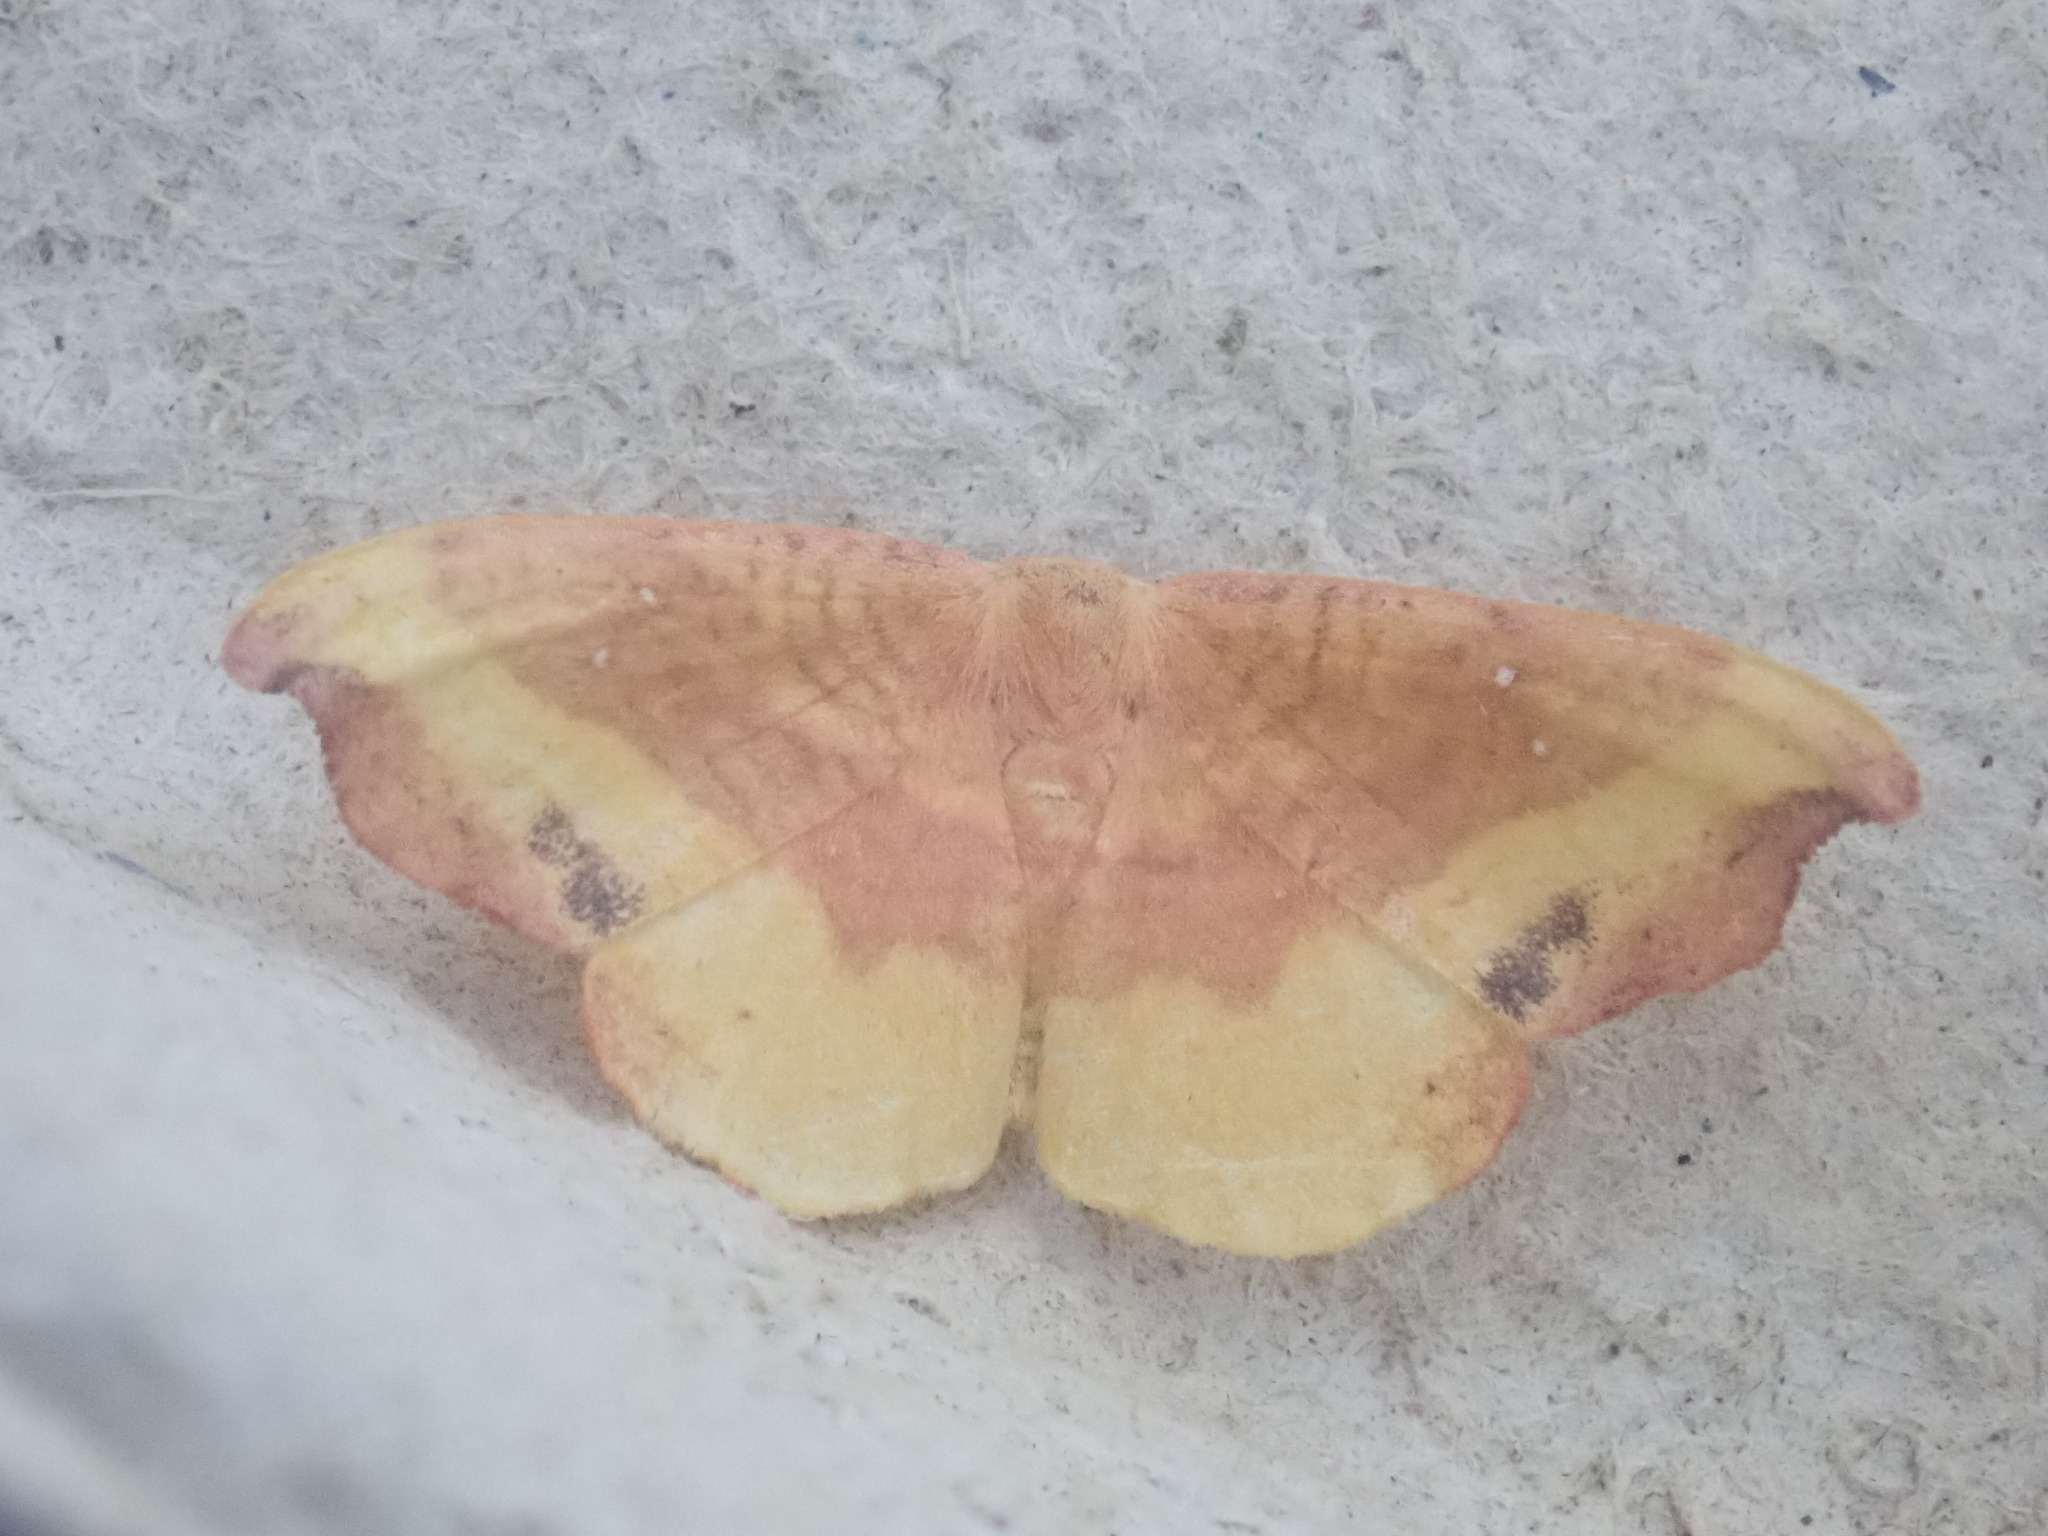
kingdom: Animalia
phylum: Arthropoda
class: Insecta
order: Lepidoptera
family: Drepanidae
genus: Oreta
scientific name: Oreta rosea
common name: Rose hooktip
